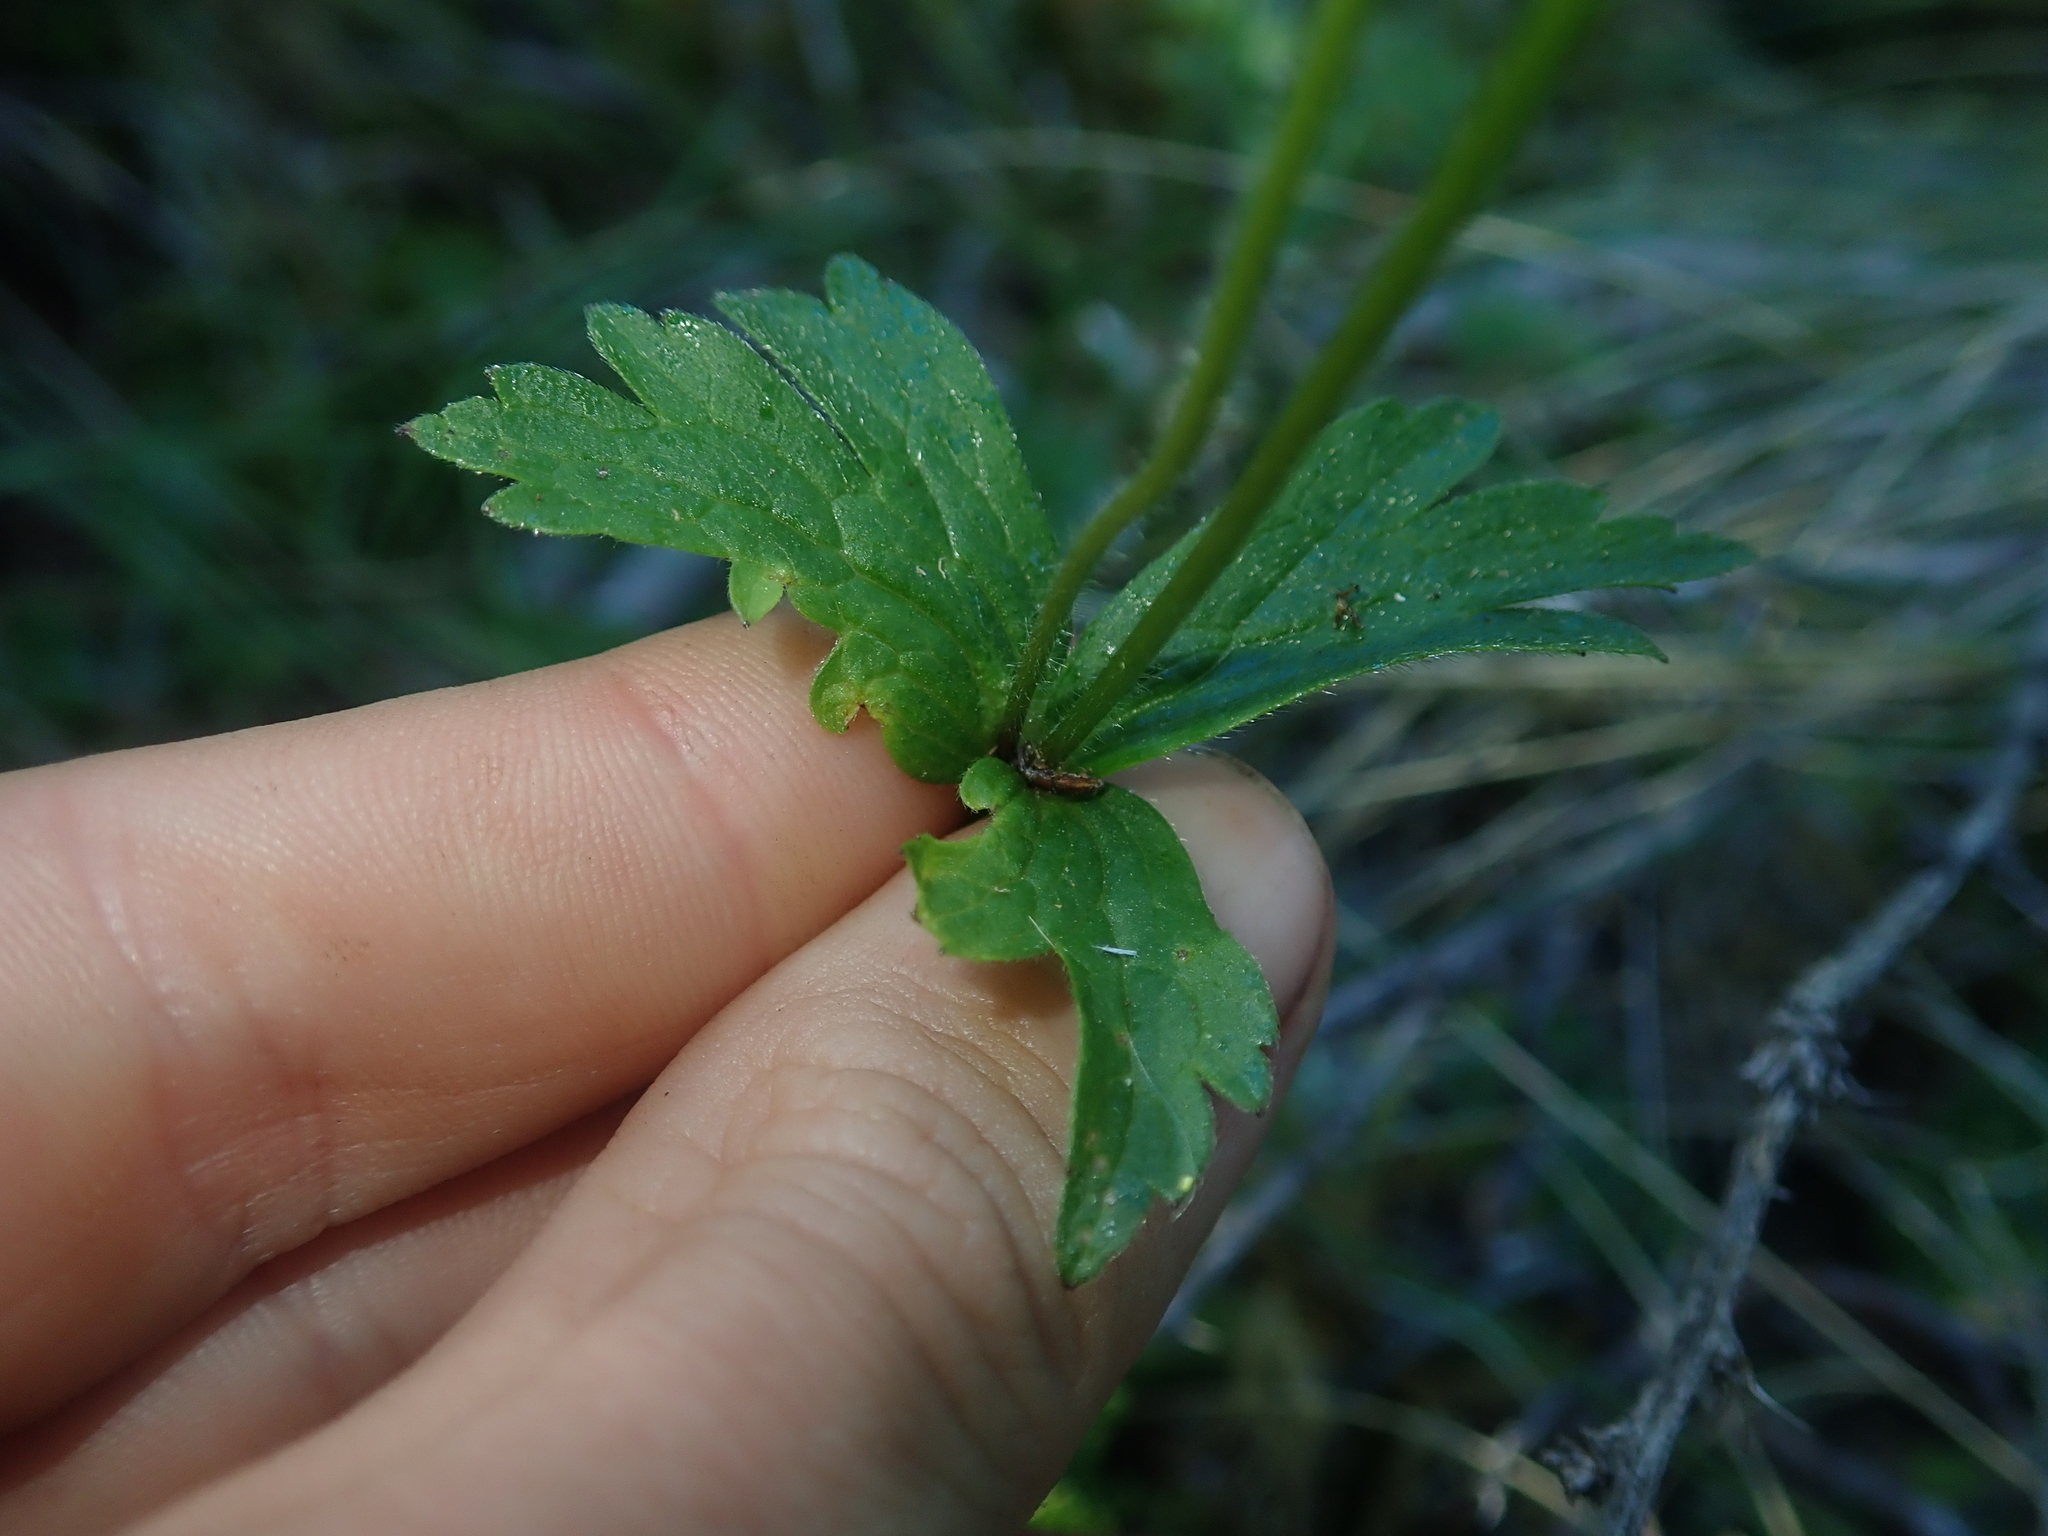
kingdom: Plantae
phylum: Tracheophyta
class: Magnoliopsida
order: Ranunculales
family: Ranunculaceae
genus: Anemonastrum
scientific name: Anemonastrum antucense
